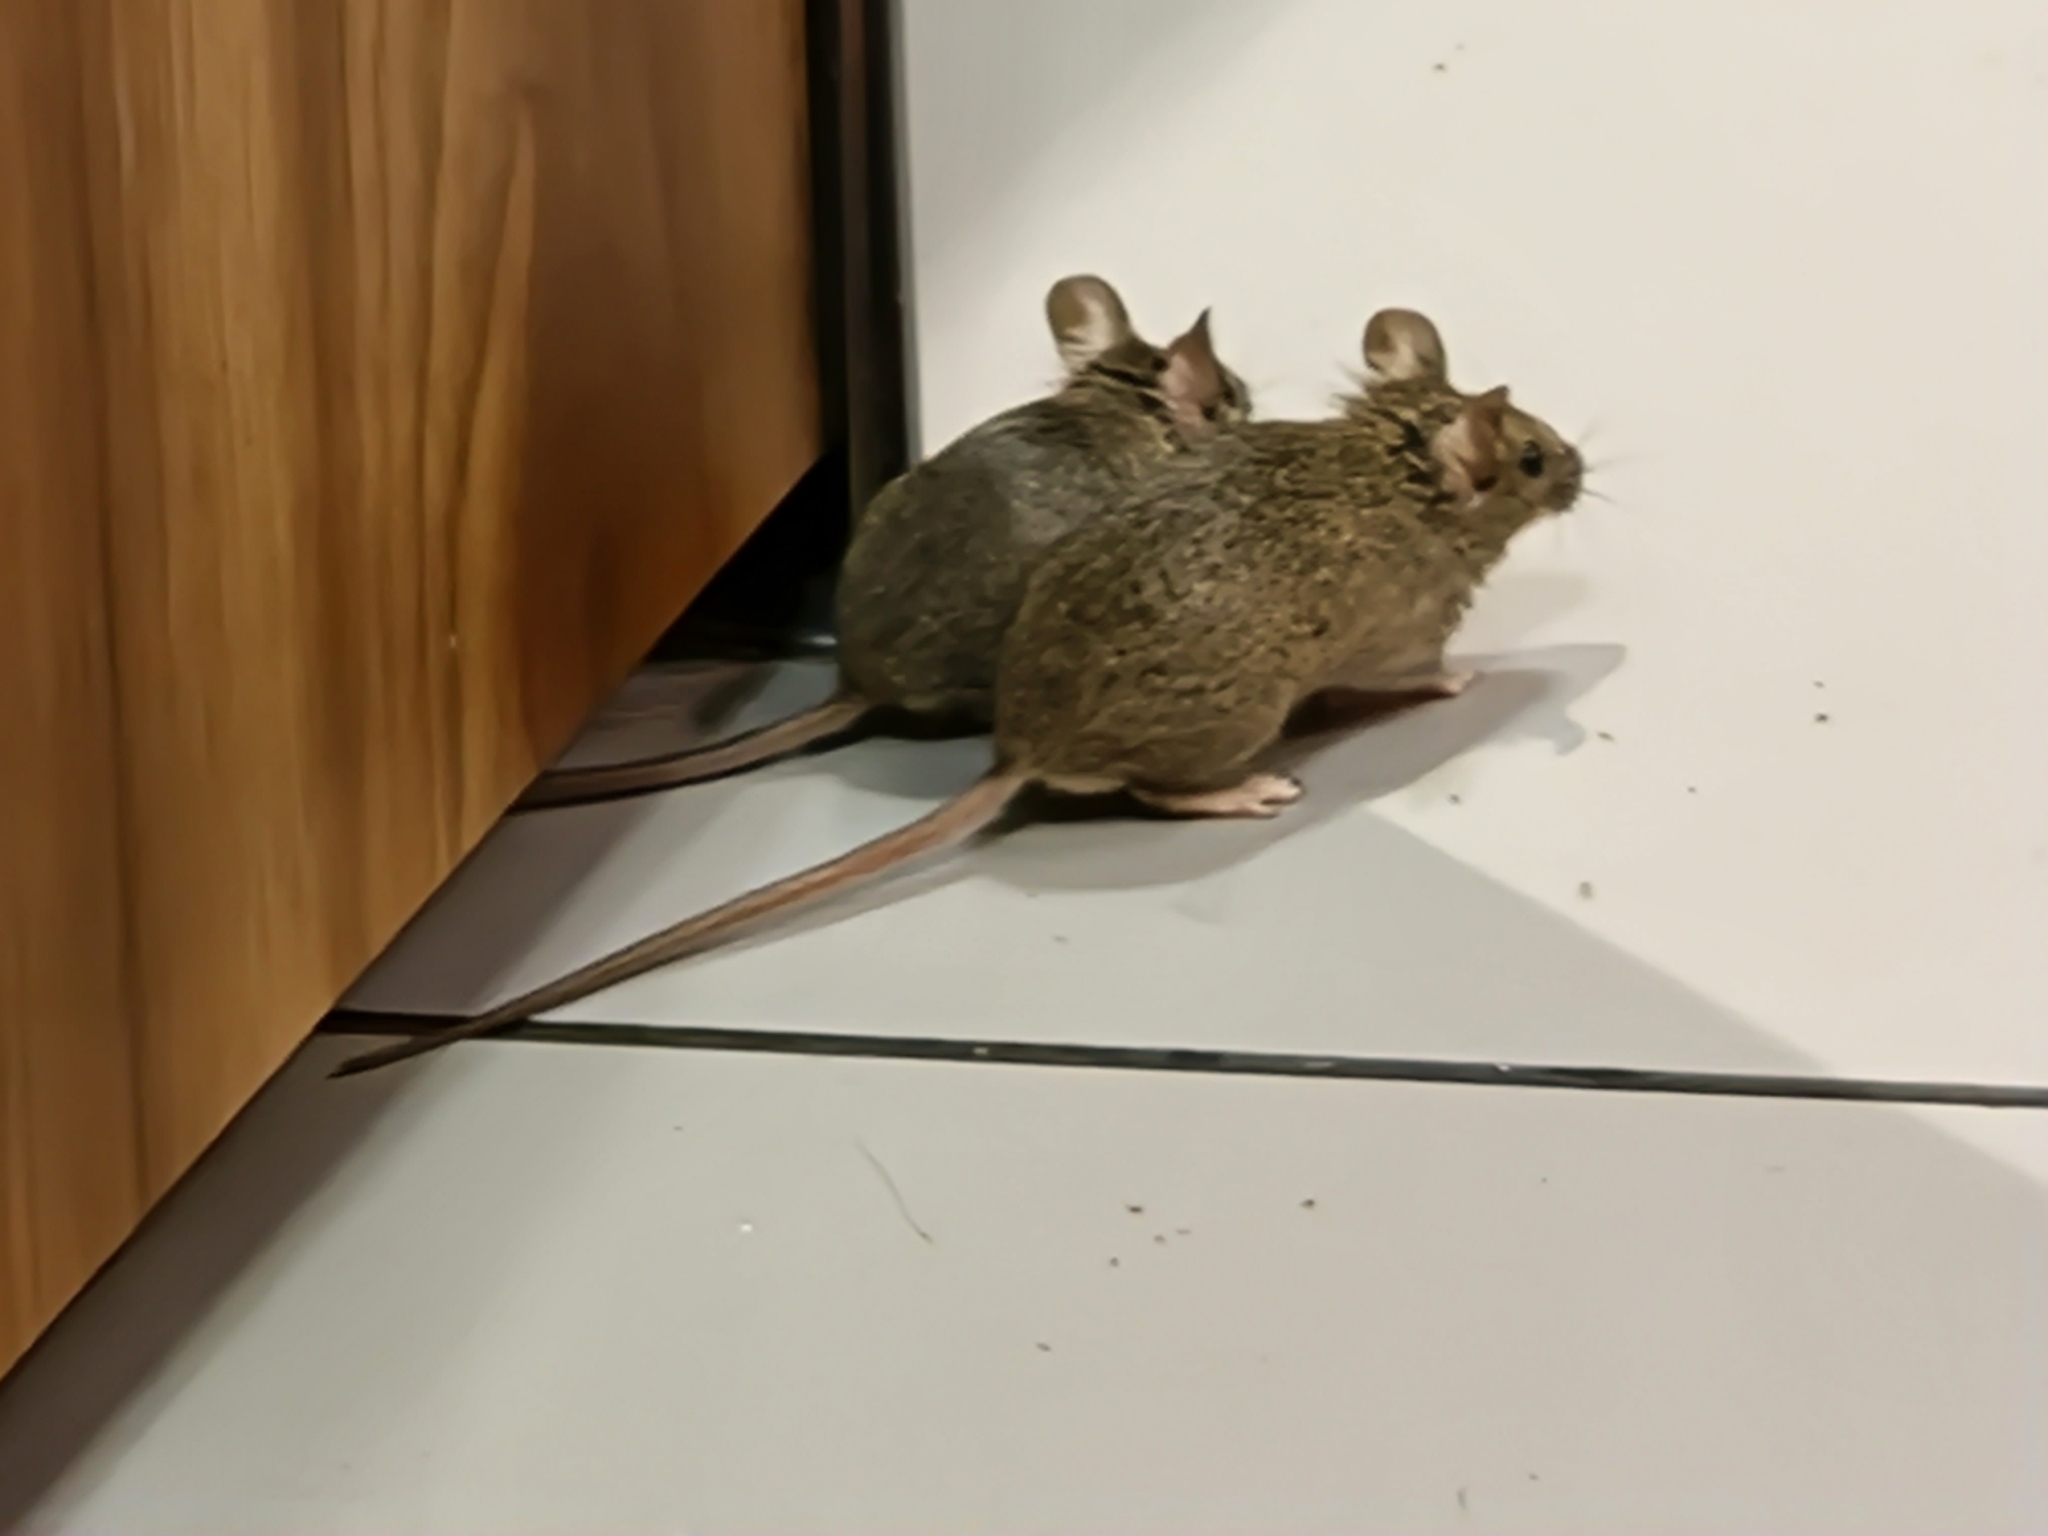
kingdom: Animalia
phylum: Chordata
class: Mammalia
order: Rodentia
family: Muridae
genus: Mus
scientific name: Mus musculus
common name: House mouse
